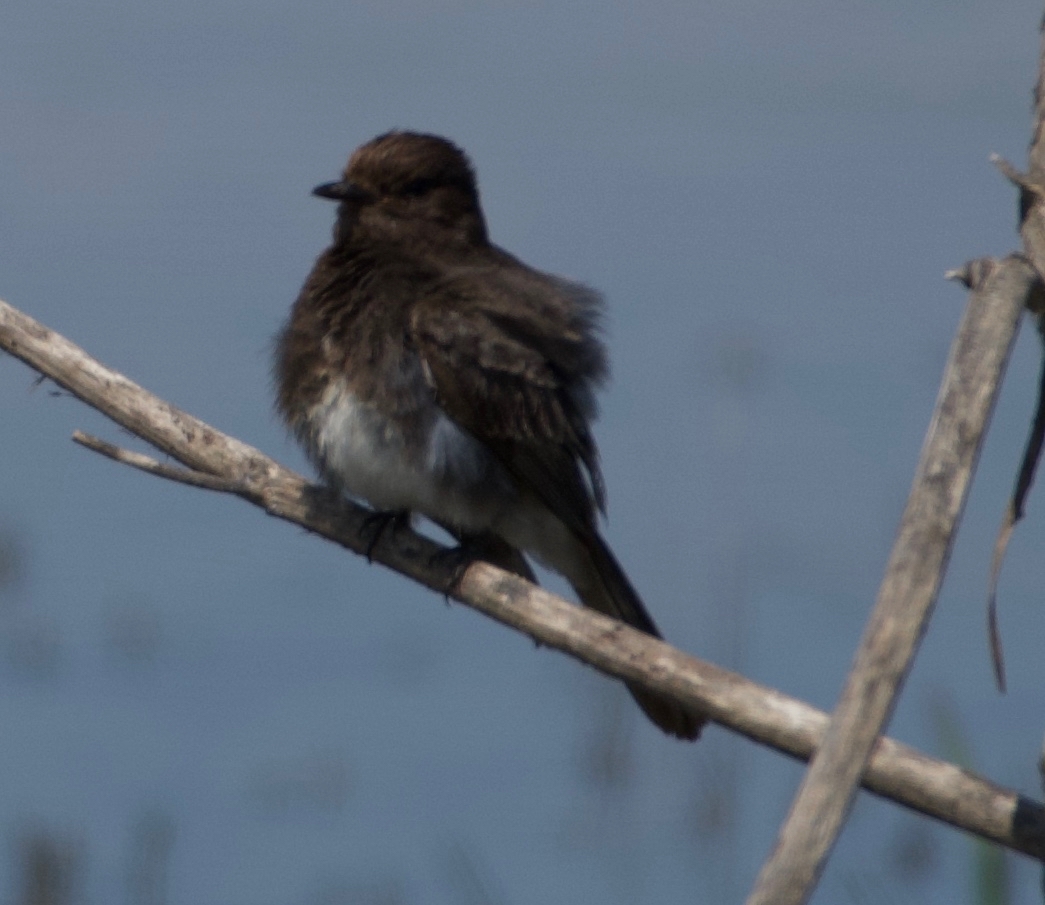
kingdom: Animalia
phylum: Chordata
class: Aves
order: Passeriformes
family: Tyrannidae
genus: Sayornis
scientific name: Sayornis nigricans
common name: Black phoebe
